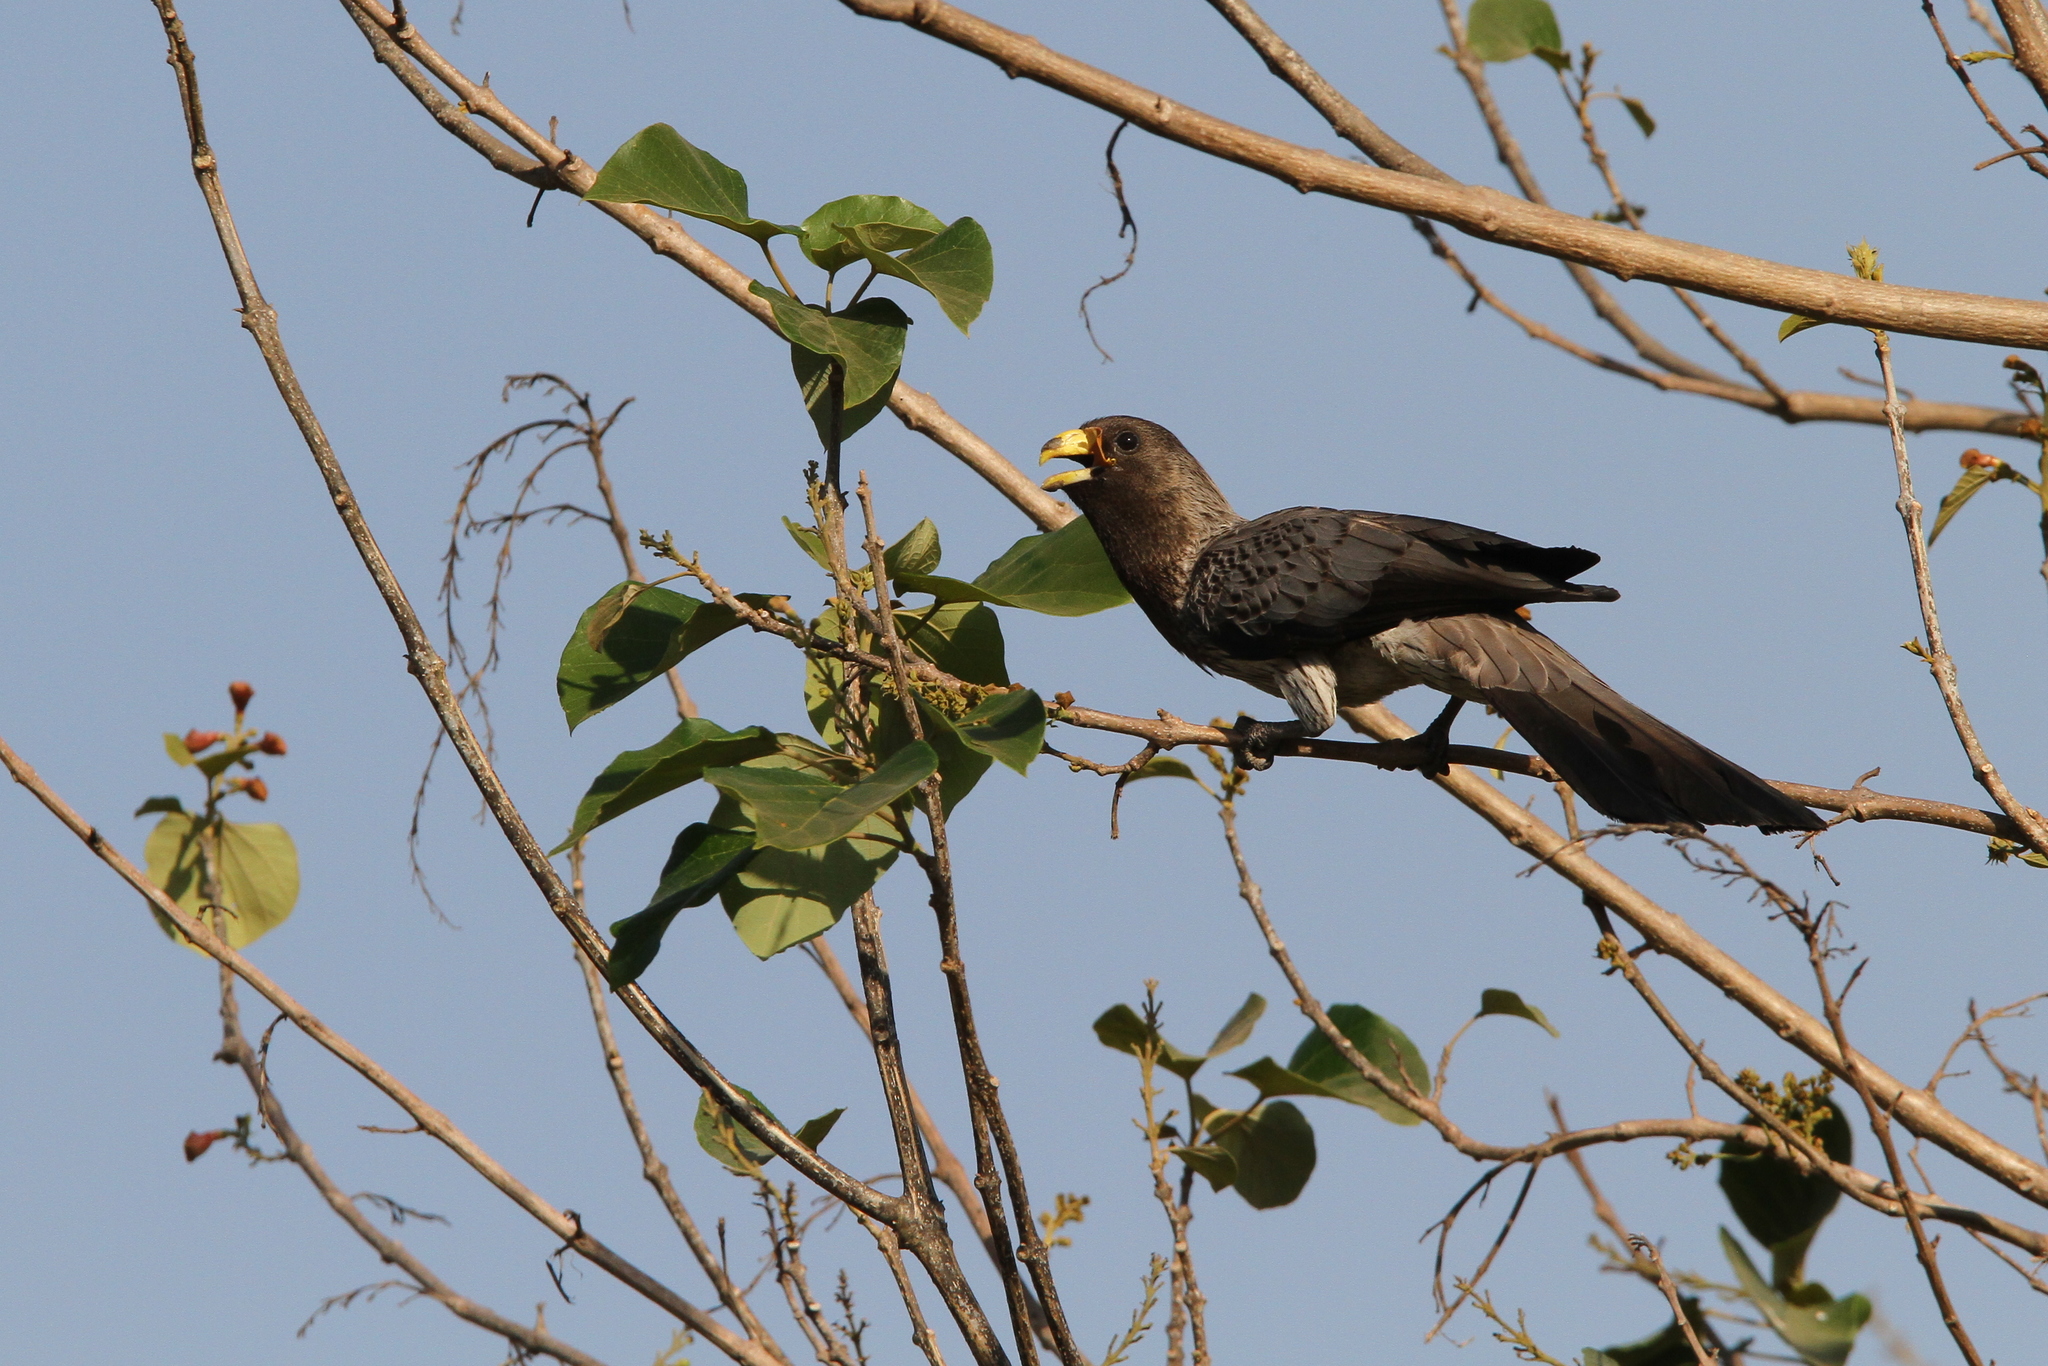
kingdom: Animalia
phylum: Chordata
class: Aves
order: Musophagiformes
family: Musophagidae
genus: Crinifer
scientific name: Crinifer piscator
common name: Western plantain-eater
